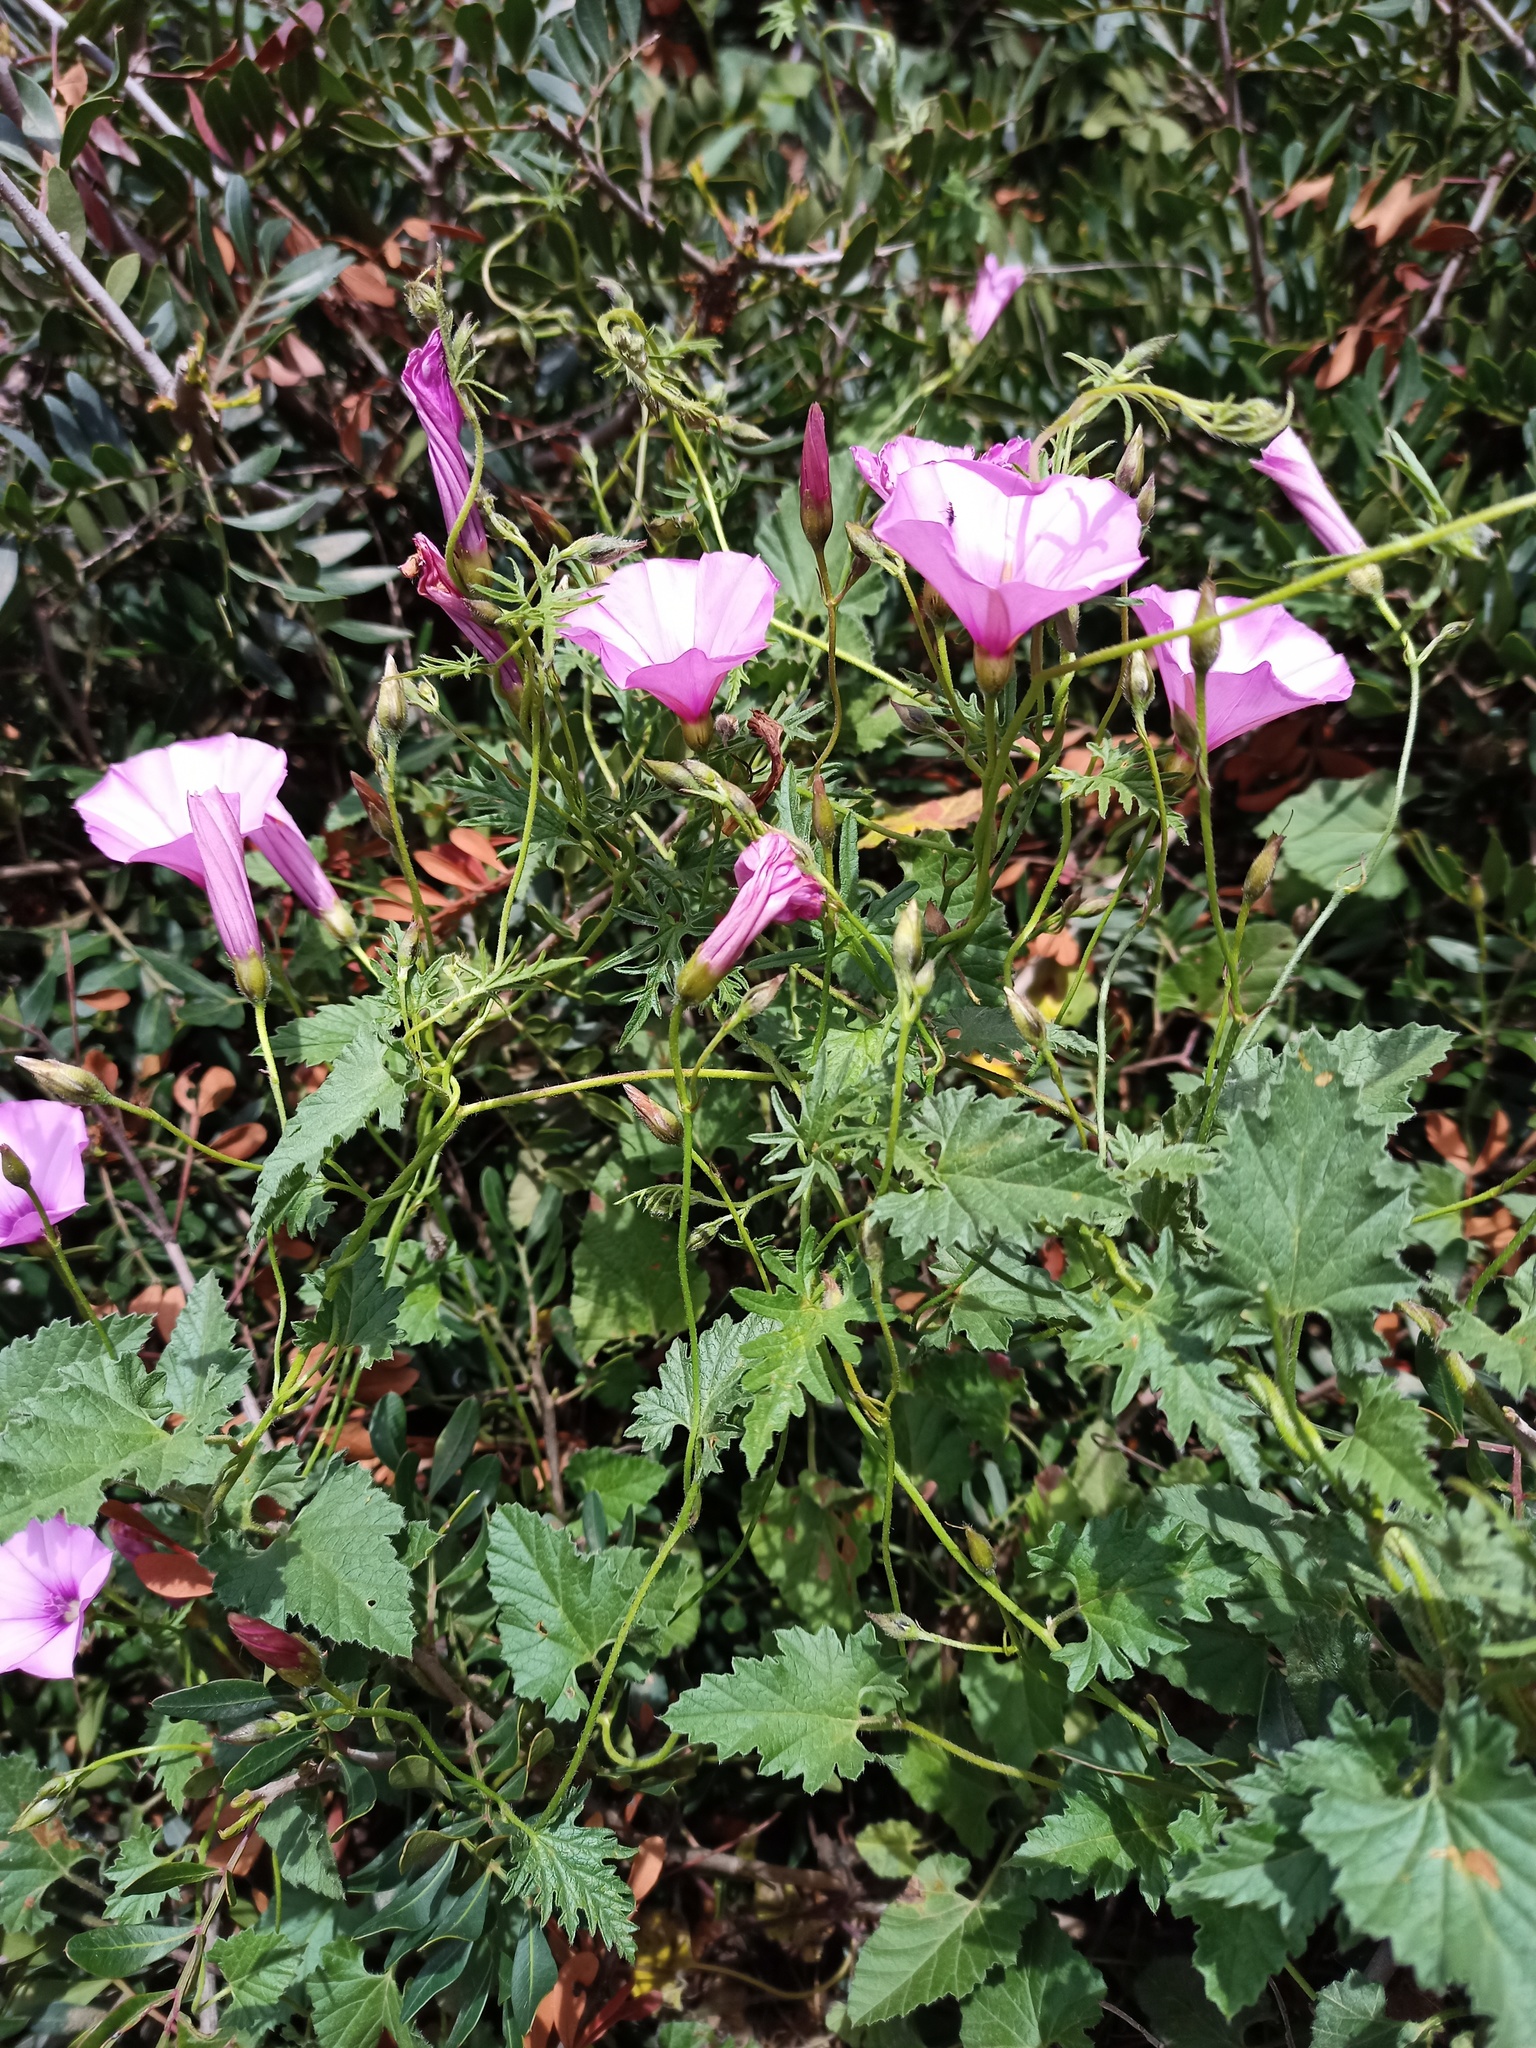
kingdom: Plantae
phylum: Tracheophyta
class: Magnoliopsida
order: Solanales
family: Convolvulaceae
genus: Convolvulus
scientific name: Convolvulus althaeoides
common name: Mallow bindweed
